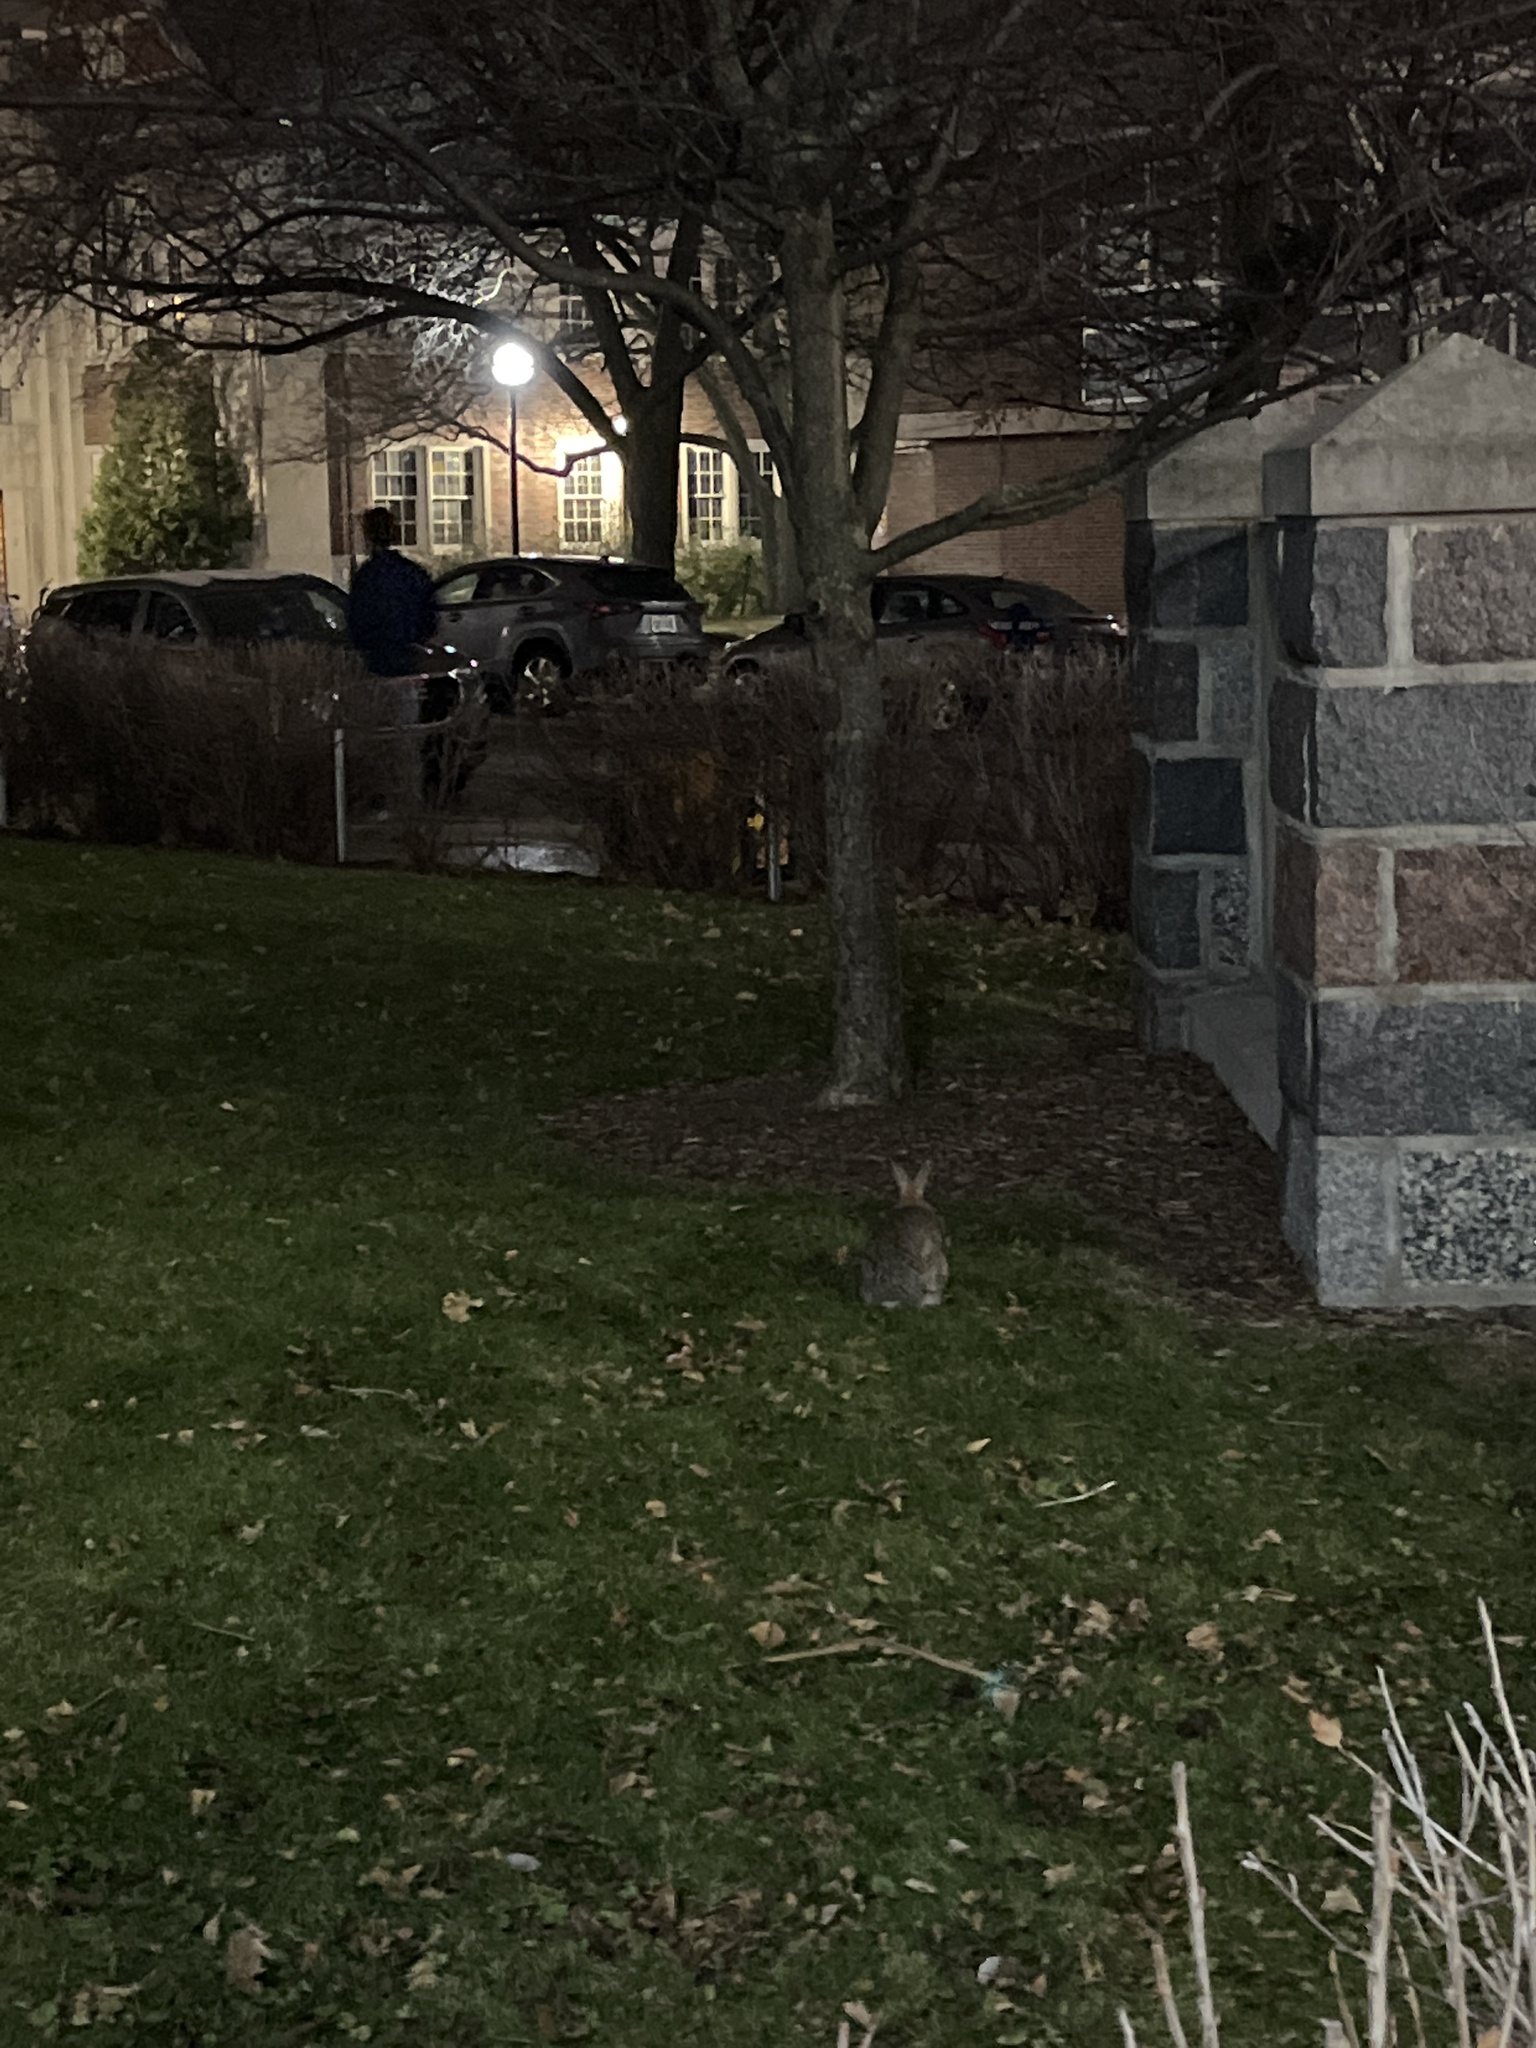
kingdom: Animalia
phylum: Chordata
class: Mammalia
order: Lagomorpha
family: Leporidae
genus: Sylvilagus
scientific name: Sylvilagus floridanus
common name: Eastern cottontail
